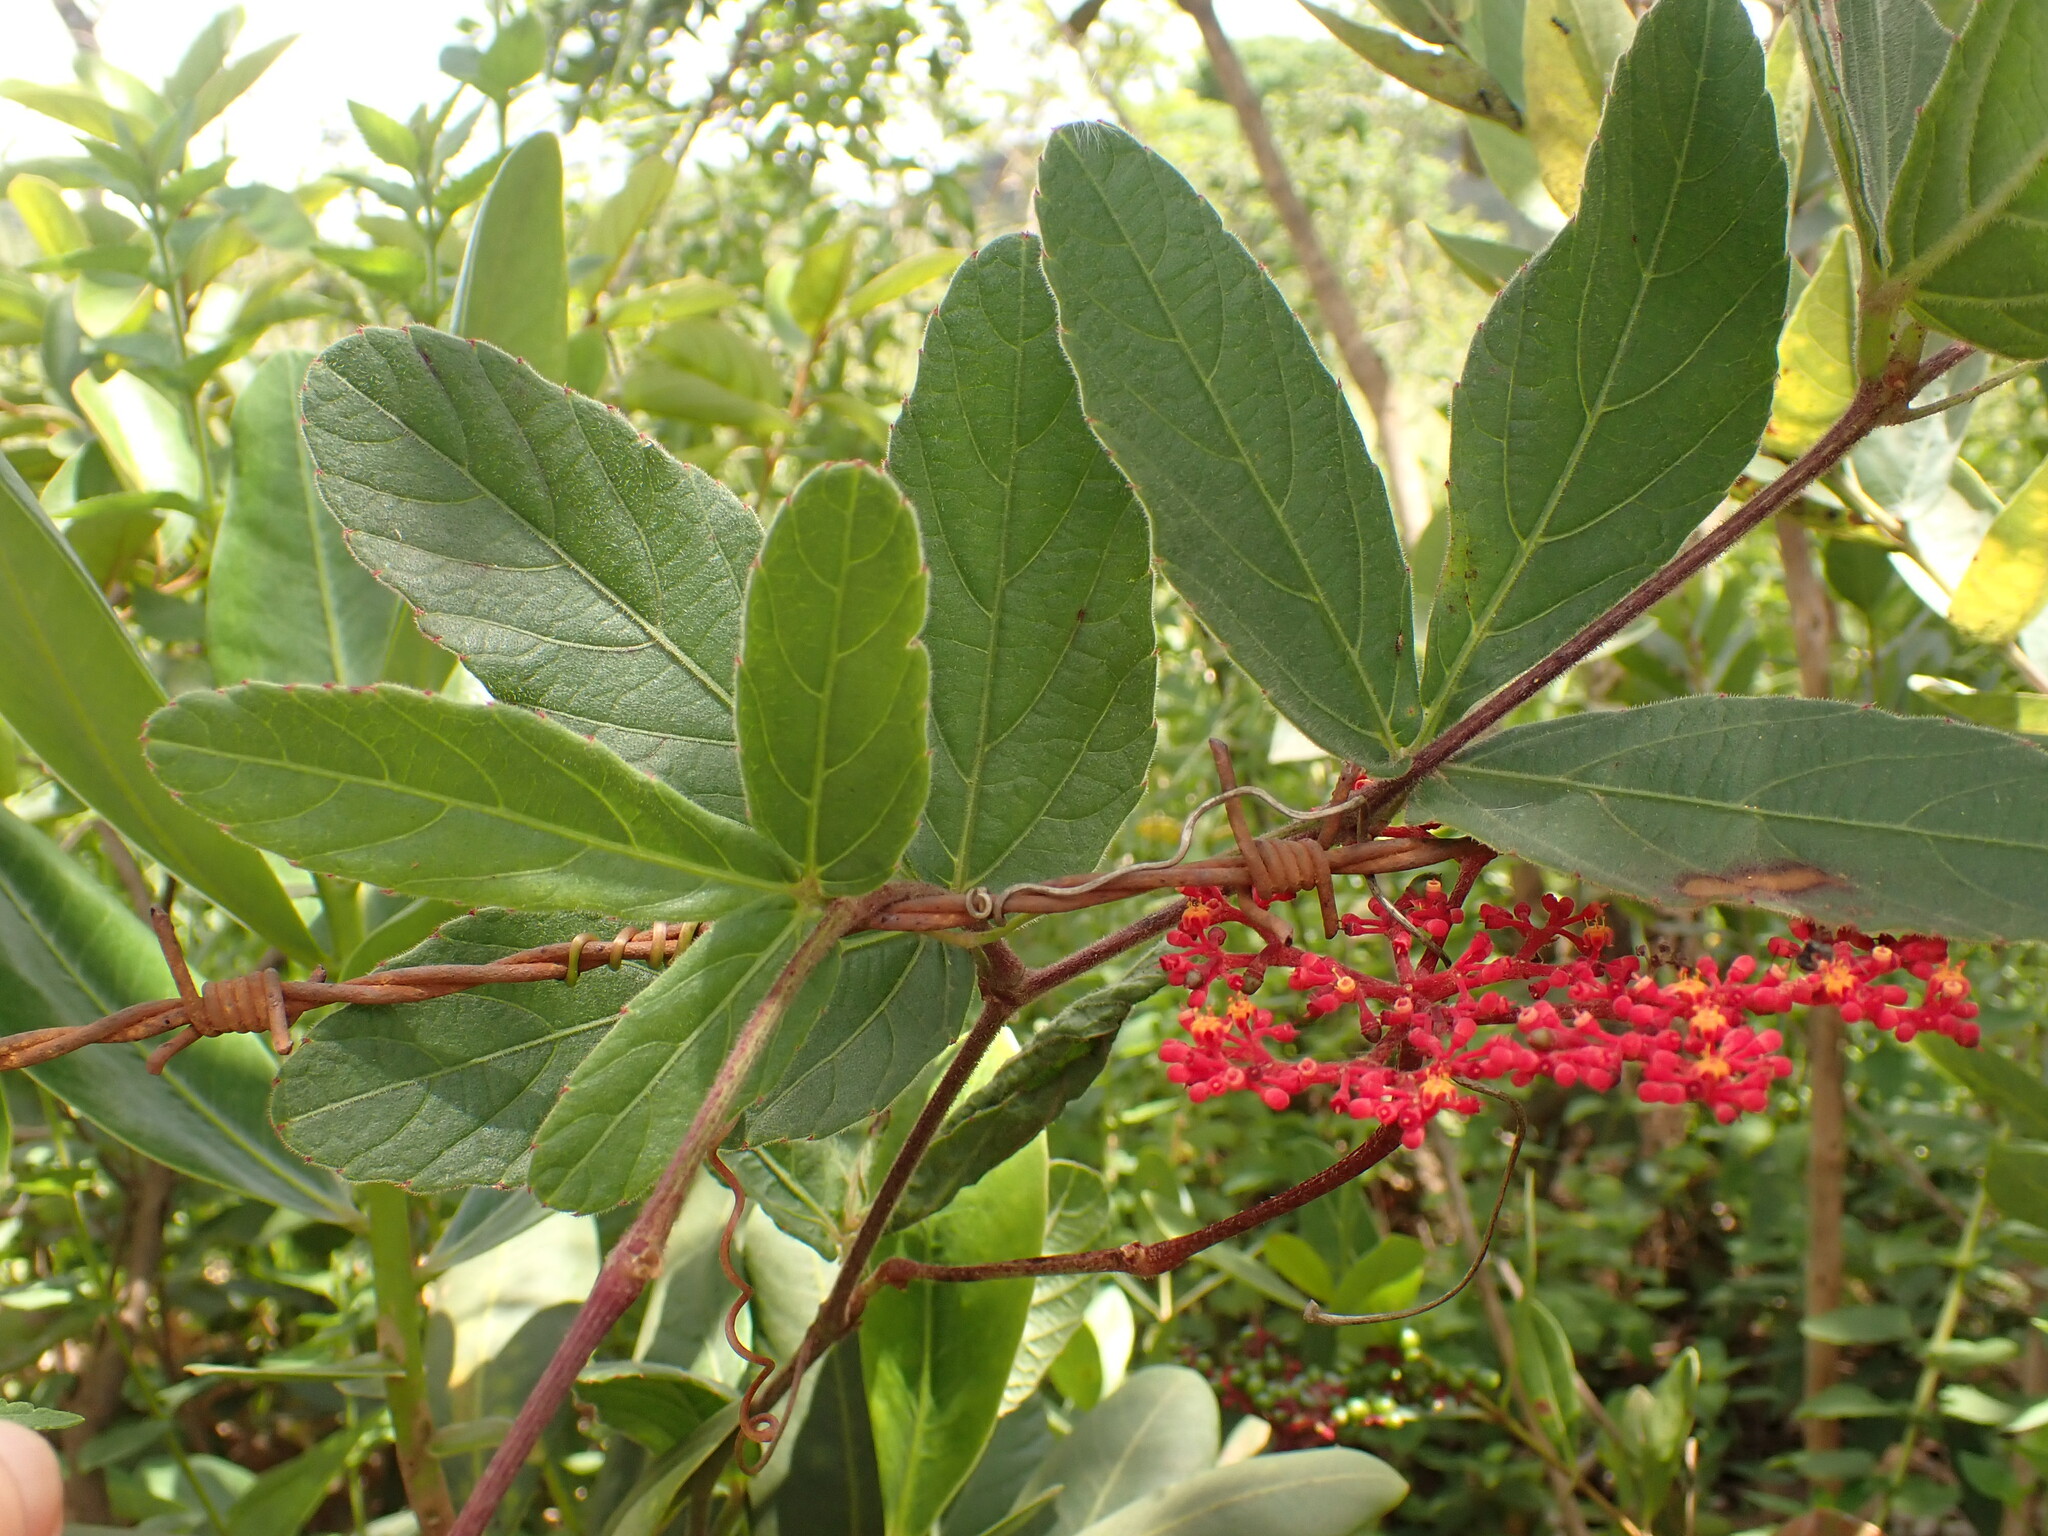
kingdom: Plantae
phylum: Tracheophyta
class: Magnoliopsida
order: Vitales
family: Vitaceae
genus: Cissus
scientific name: Cissus erosa
